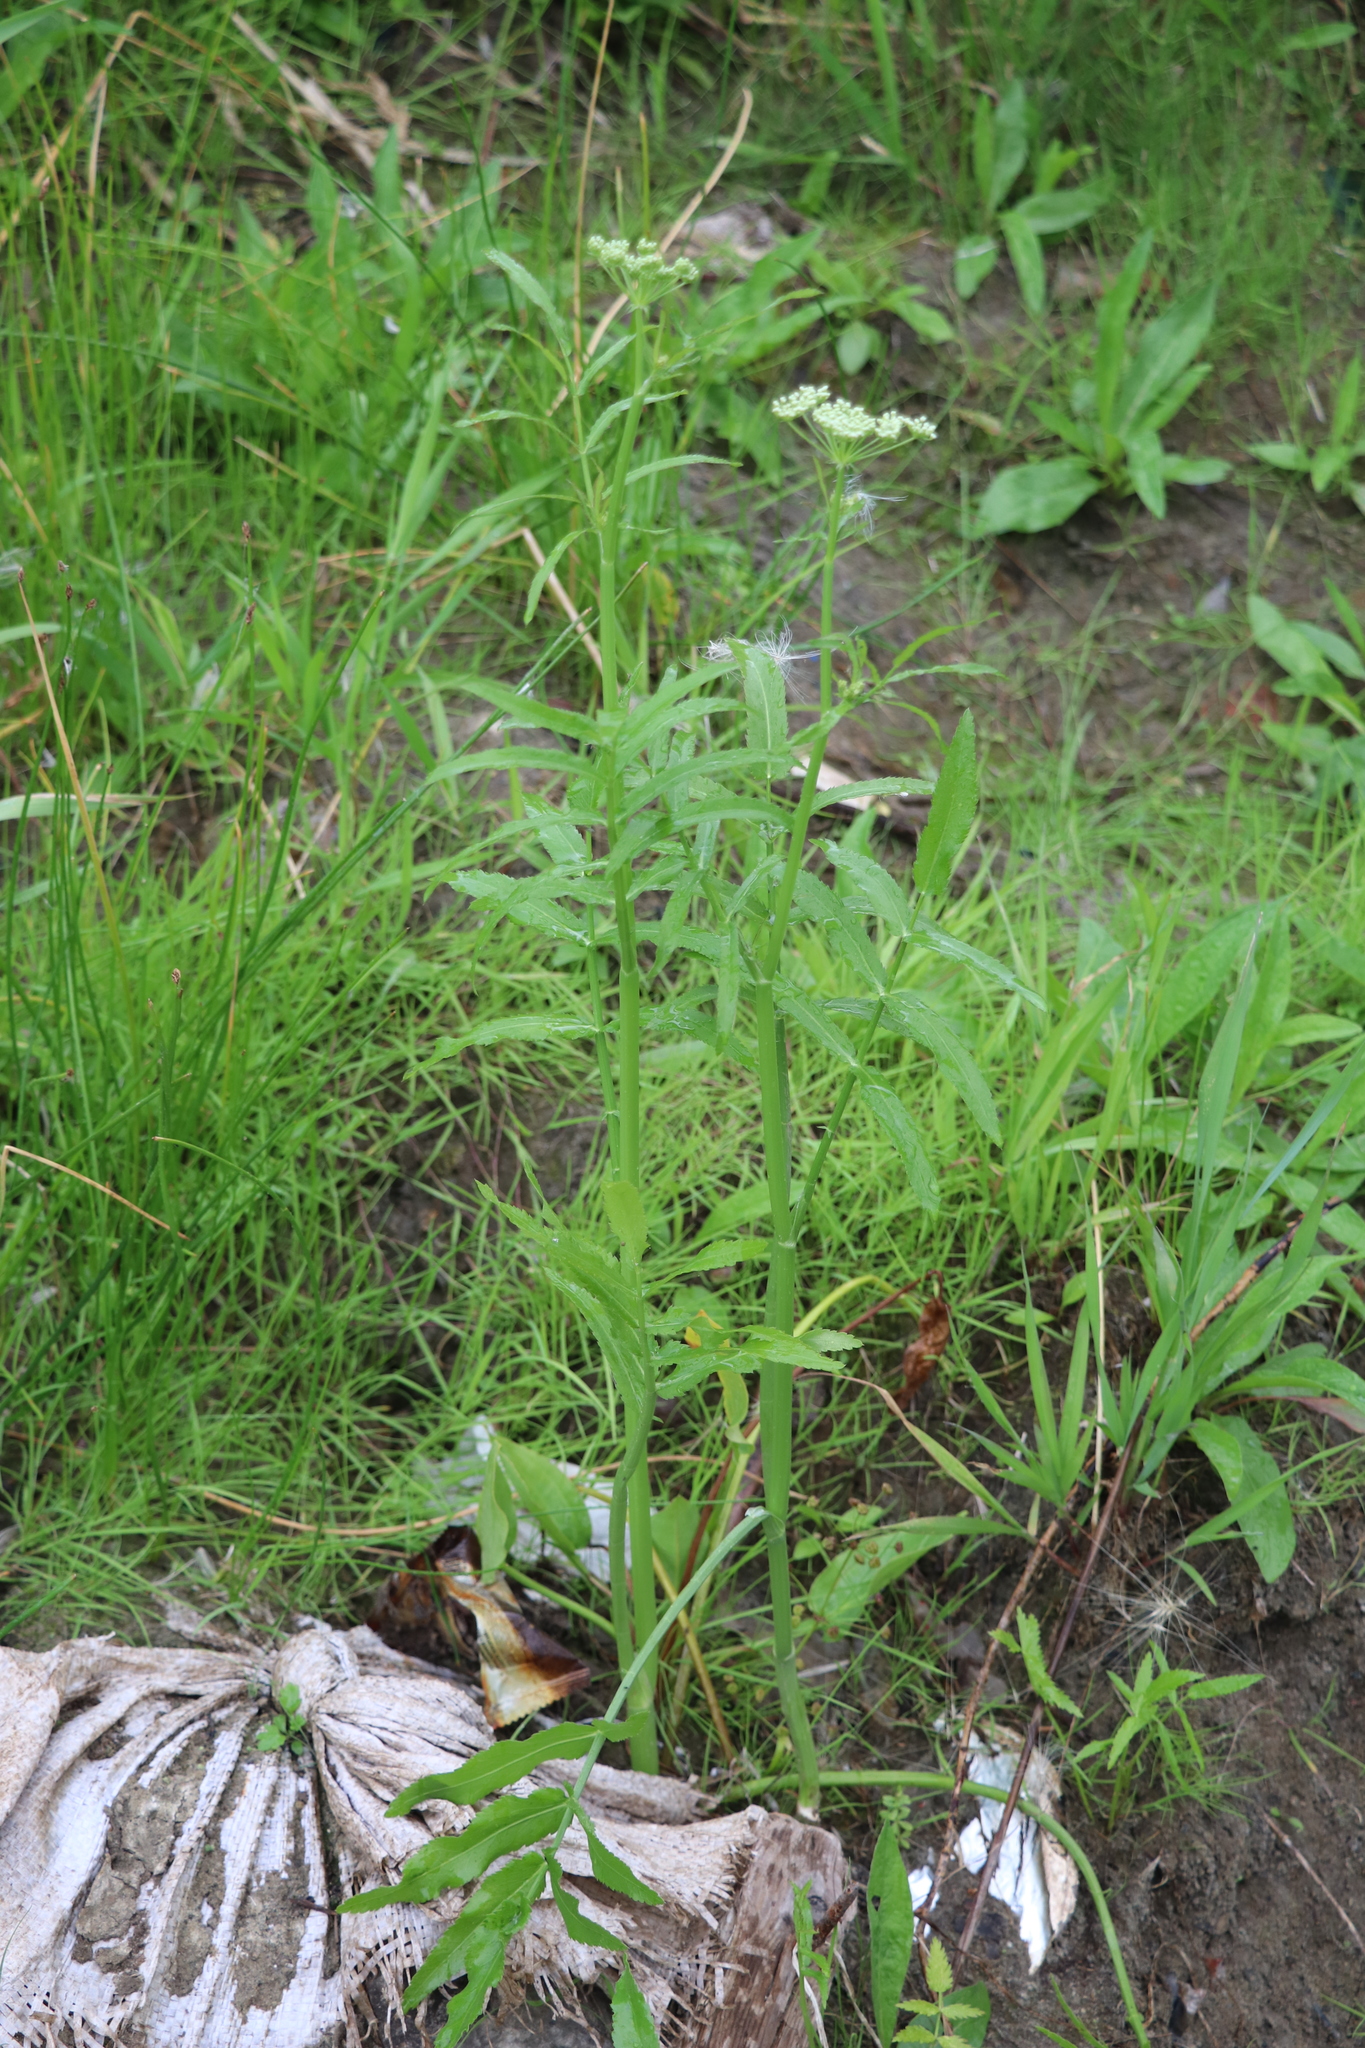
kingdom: Plantae
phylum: Tracheophyta
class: Magnoliopsida
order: Apiales
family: Apiaceae
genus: Sium
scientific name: Sium latifolium
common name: Greater water-parsnip
